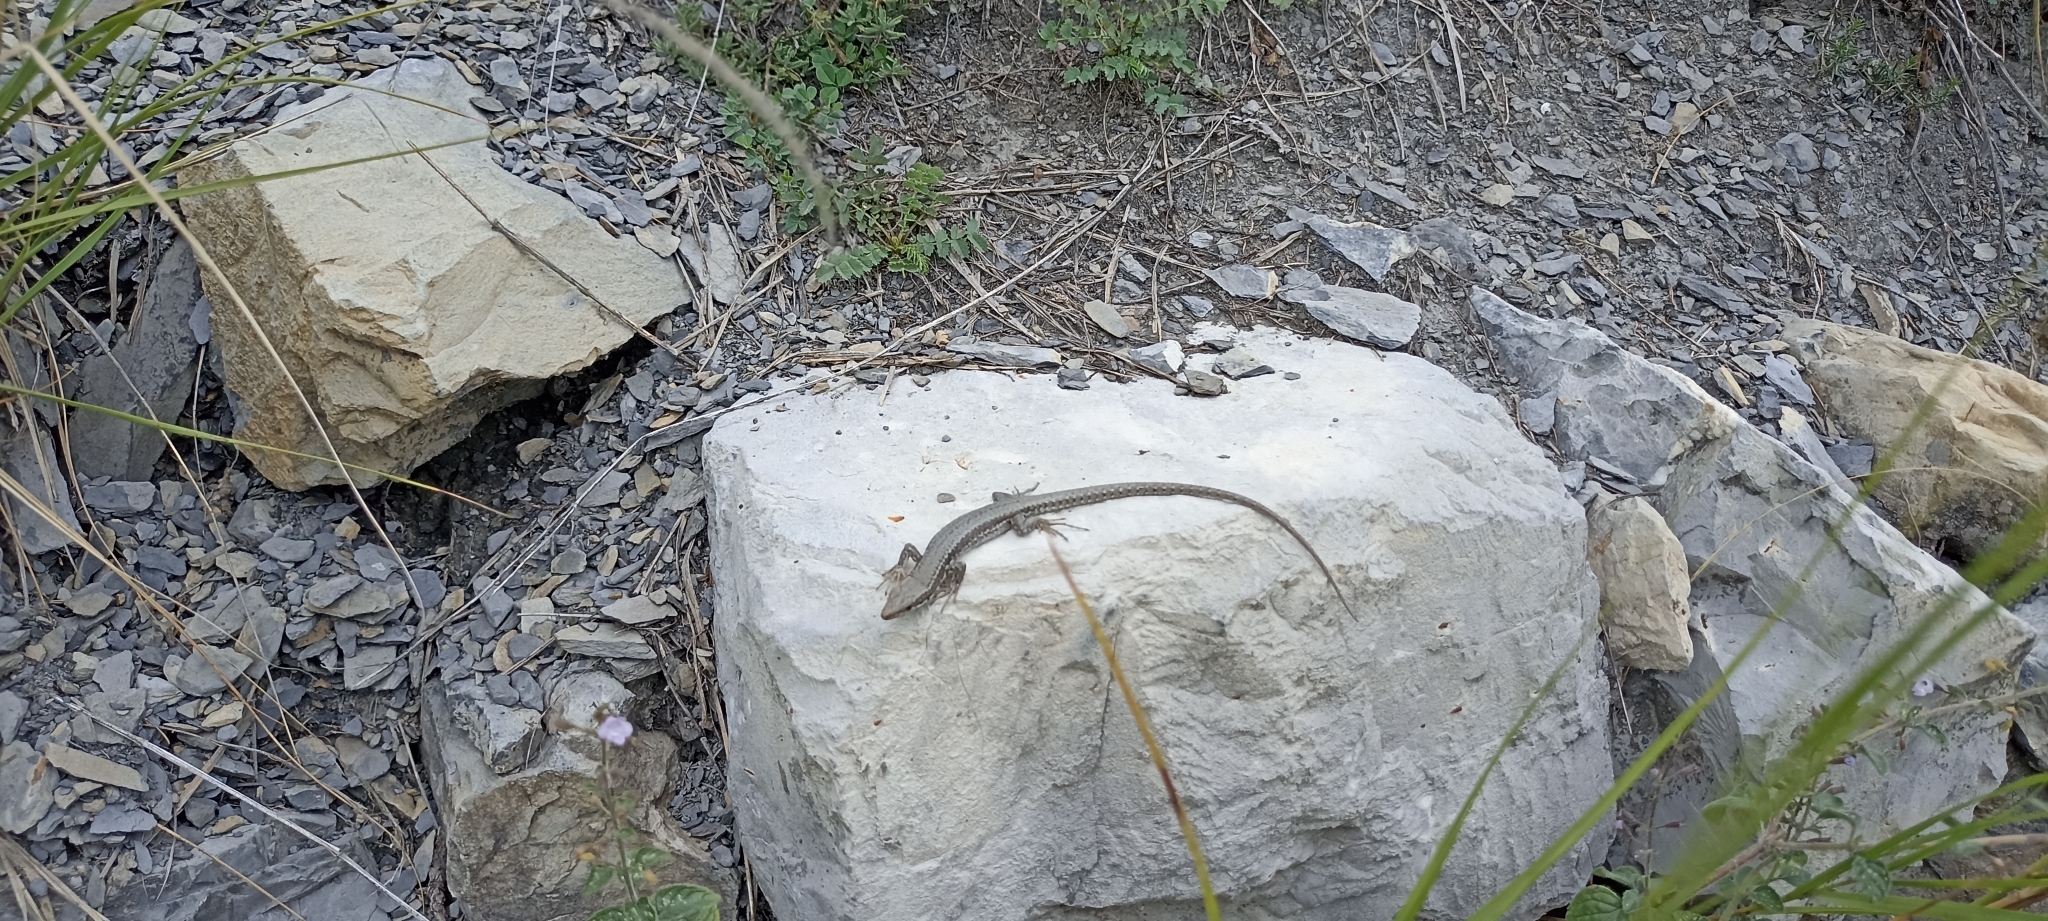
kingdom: Animalia
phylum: Chordata
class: Squamata
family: Lacertidae
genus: Podarcis
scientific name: Podarcis muralis
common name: Common wall lizard
